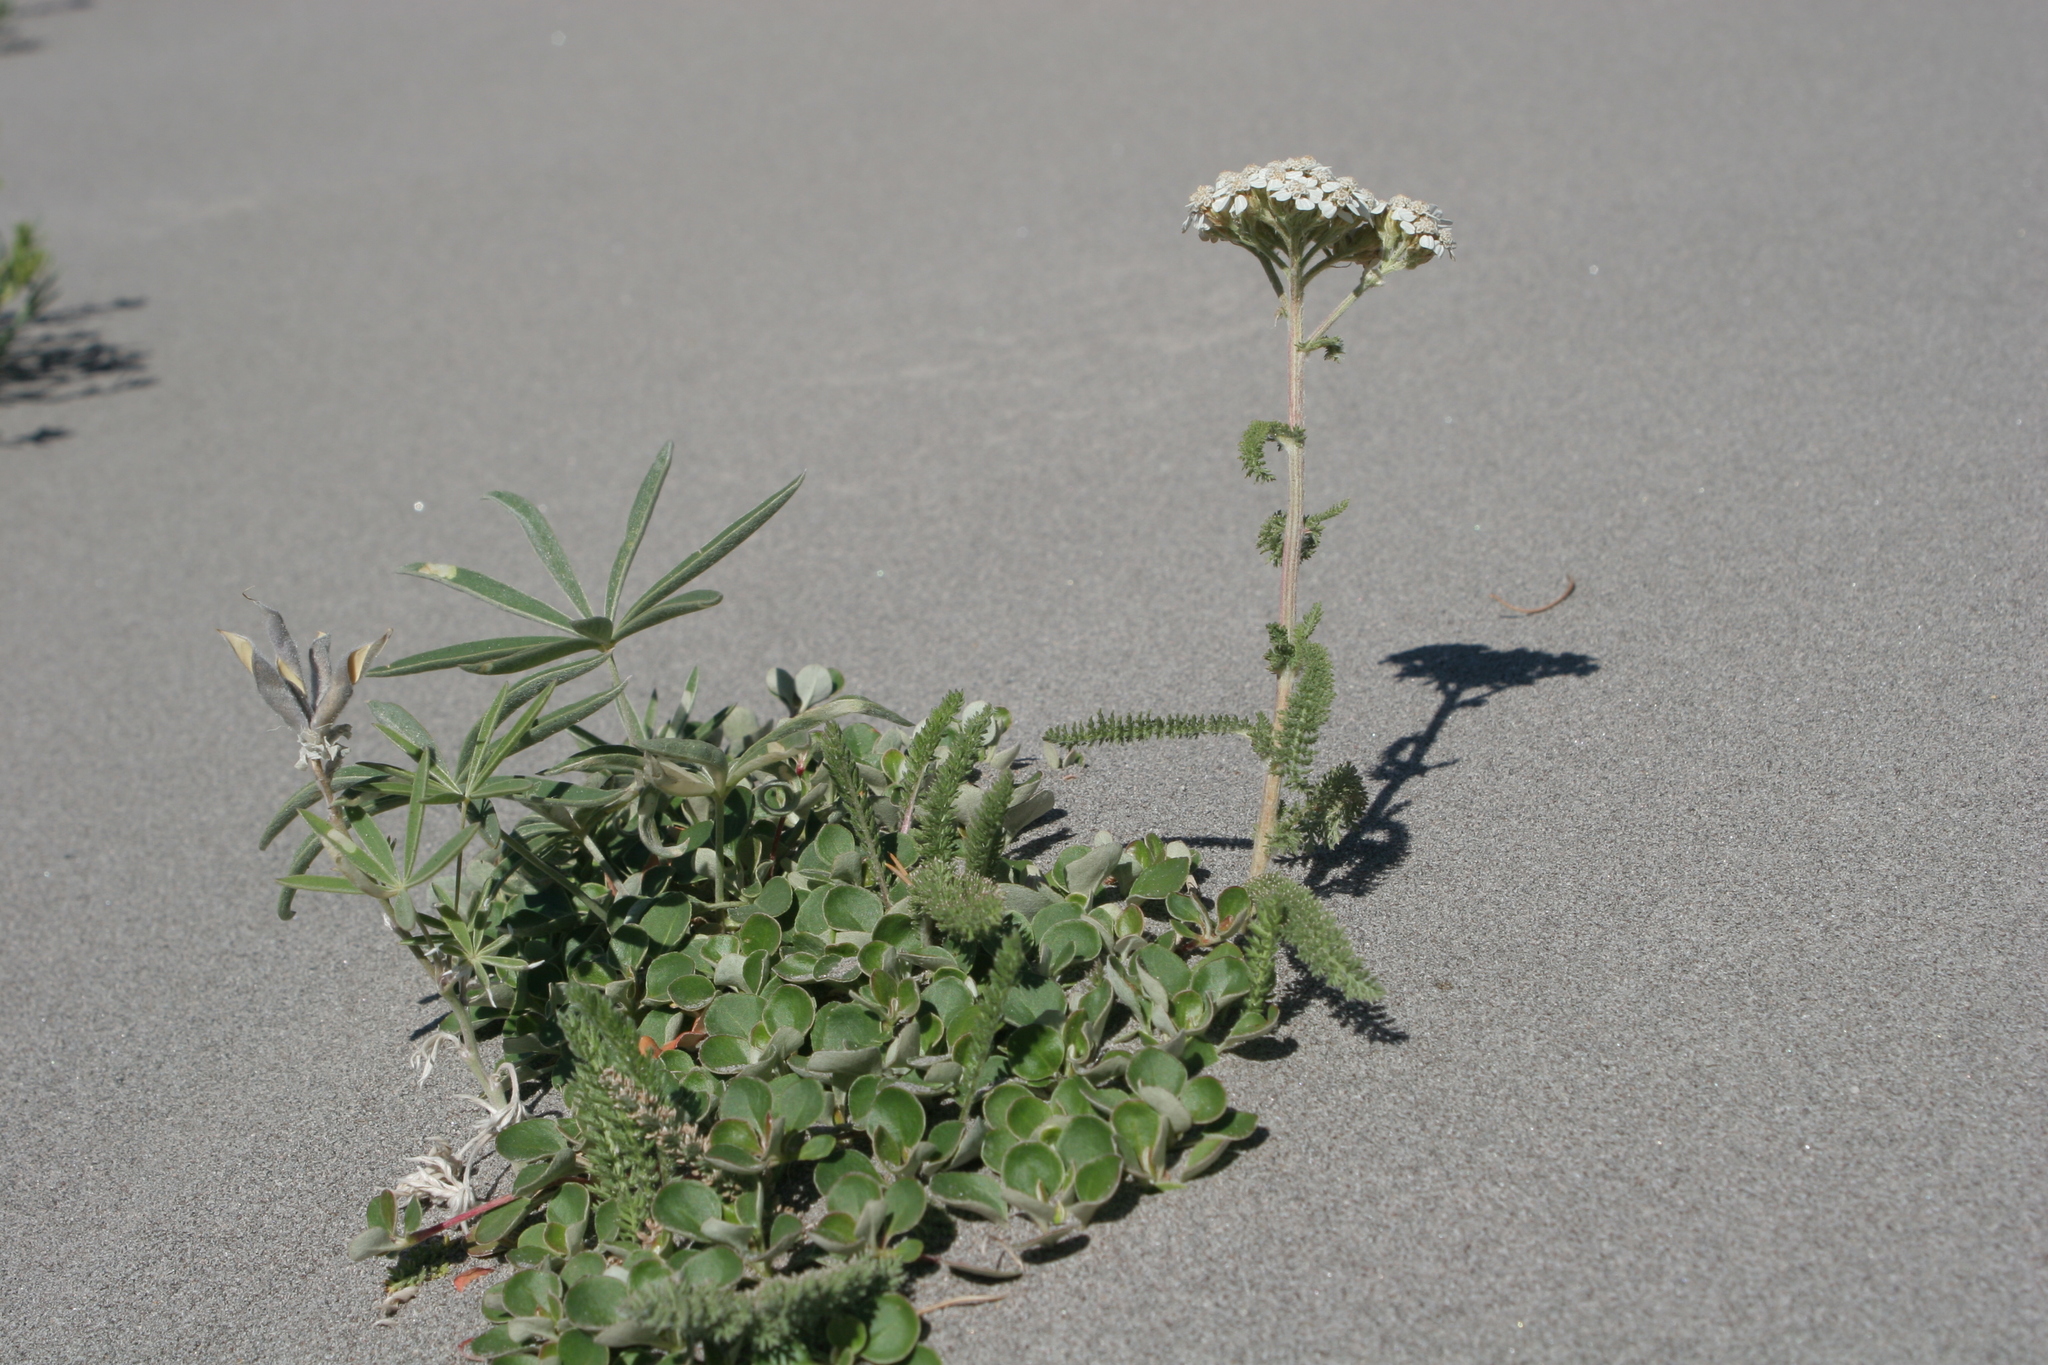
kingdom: Plantae
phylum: Tracheophyta
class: Magnoliopsida
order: Asterales
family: Asteraceae
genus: Achillea
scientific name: Achillea millefolium
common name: Yarrow
